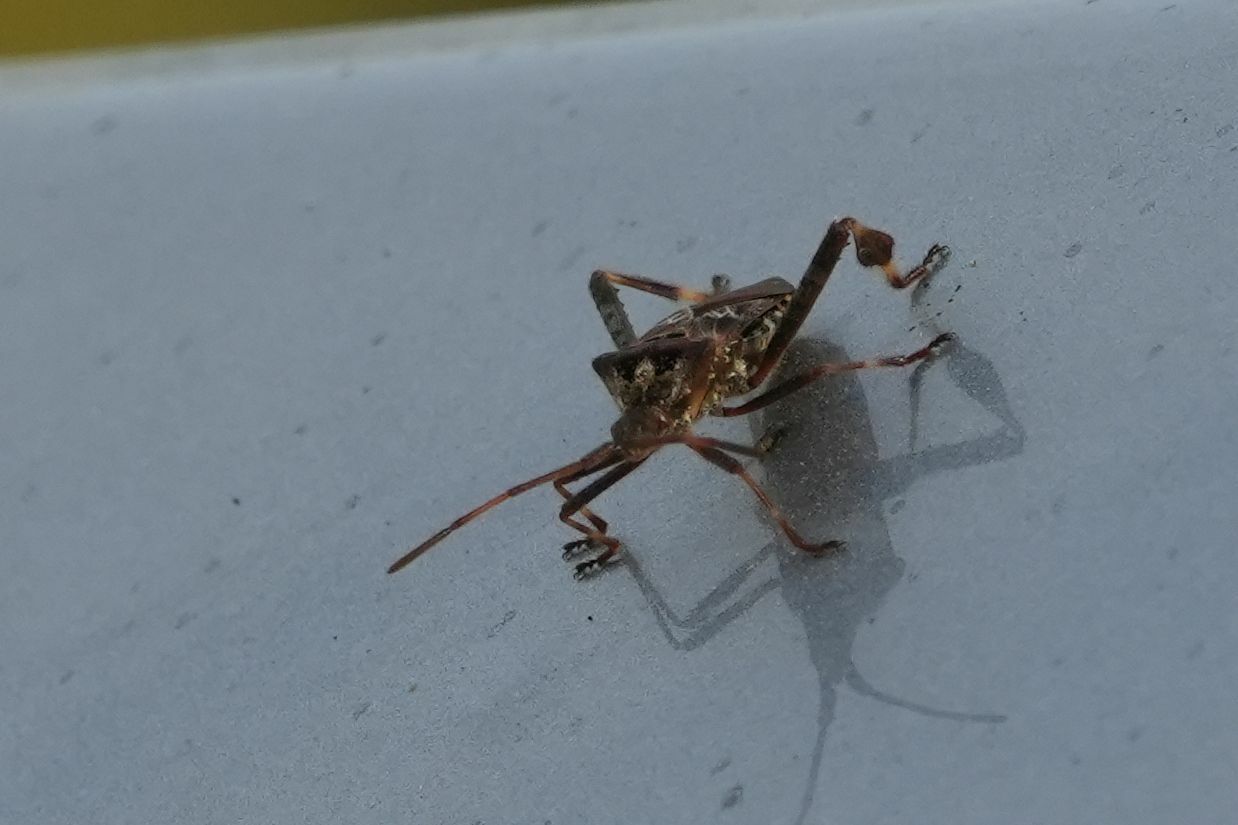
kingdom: Animalia
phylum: Arthropoda
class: Insecta
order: Hemiptera
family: Coreidae
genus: Leptoglossus
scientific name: Leptoglossus occidentalis
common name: Western conifer-seed bug
